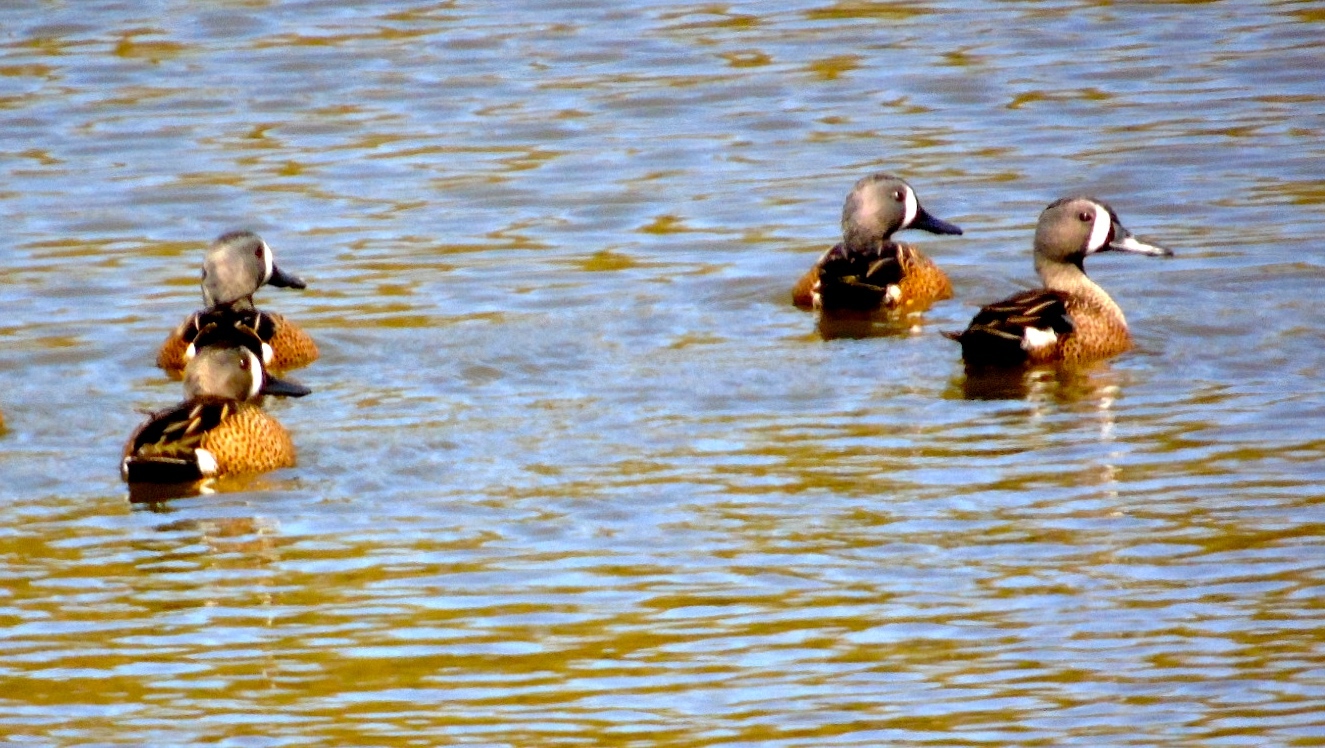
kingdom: Animalia
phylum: Chordata
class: Aves
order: Anseriformes
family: Anatidae
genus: Spatula
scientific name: Spatula discors
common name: Blue-winged teal
